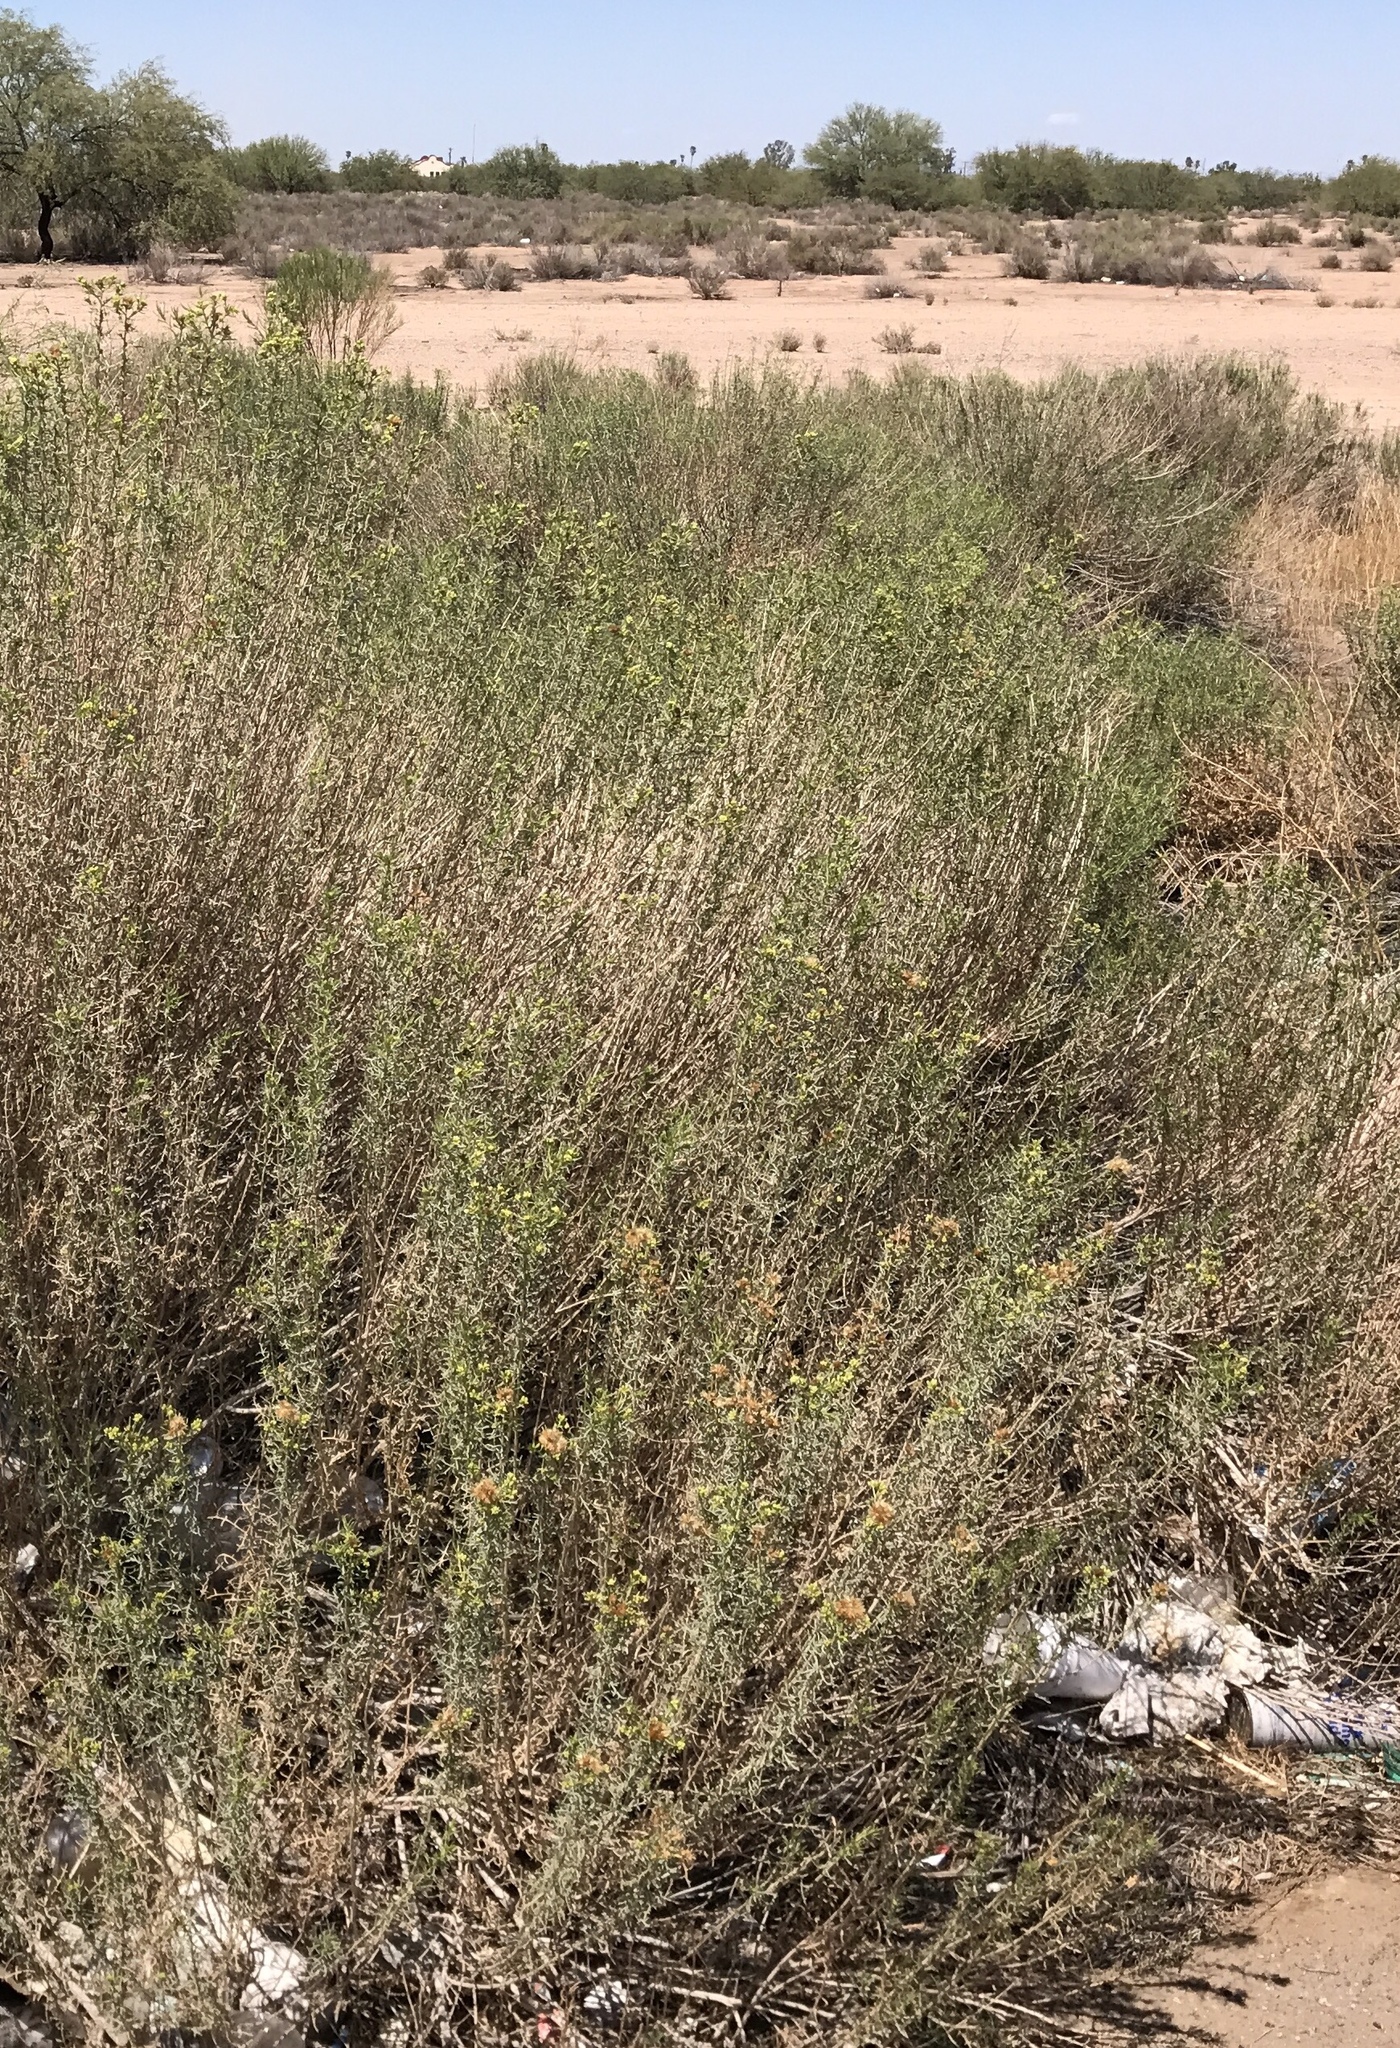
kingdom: Plantae
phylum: Tracheophyta
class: Magnoliopsida
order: Asterales
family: Asteraceae
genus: Isocoma
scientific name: Isocoma acradenia
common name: Alkali jimmyweed
